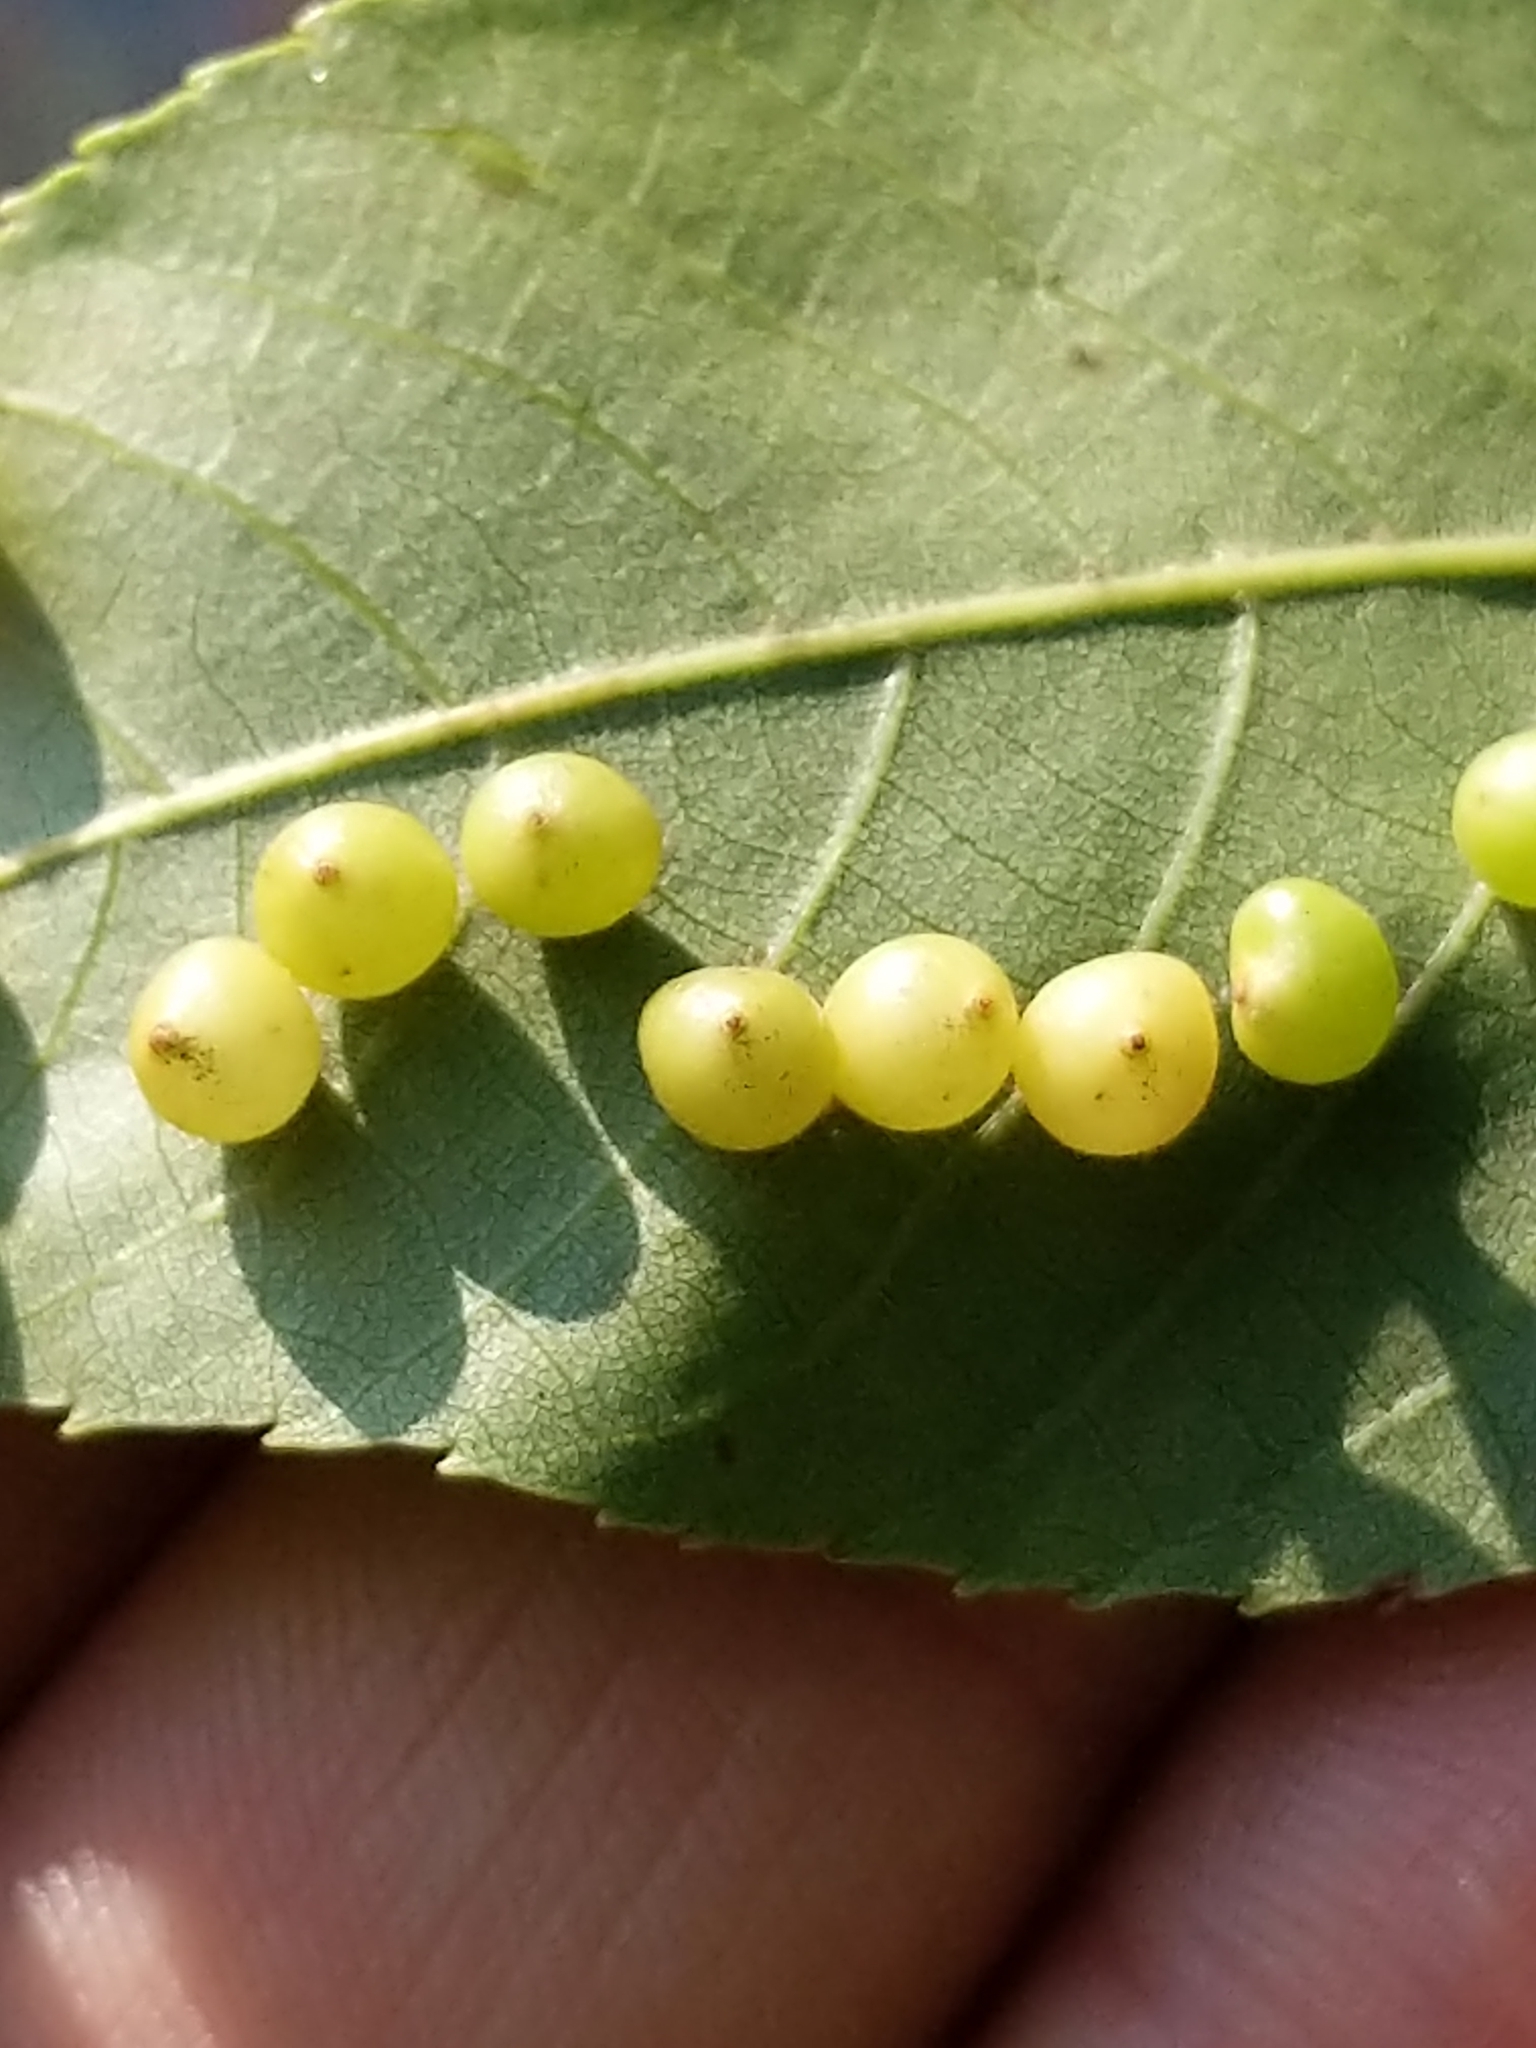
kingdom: Animalia
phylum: Arthropoda
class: Insecta
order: Diptera
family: Cecidomyiidae
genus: Caryomyia
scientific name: Caryomyia caryae
